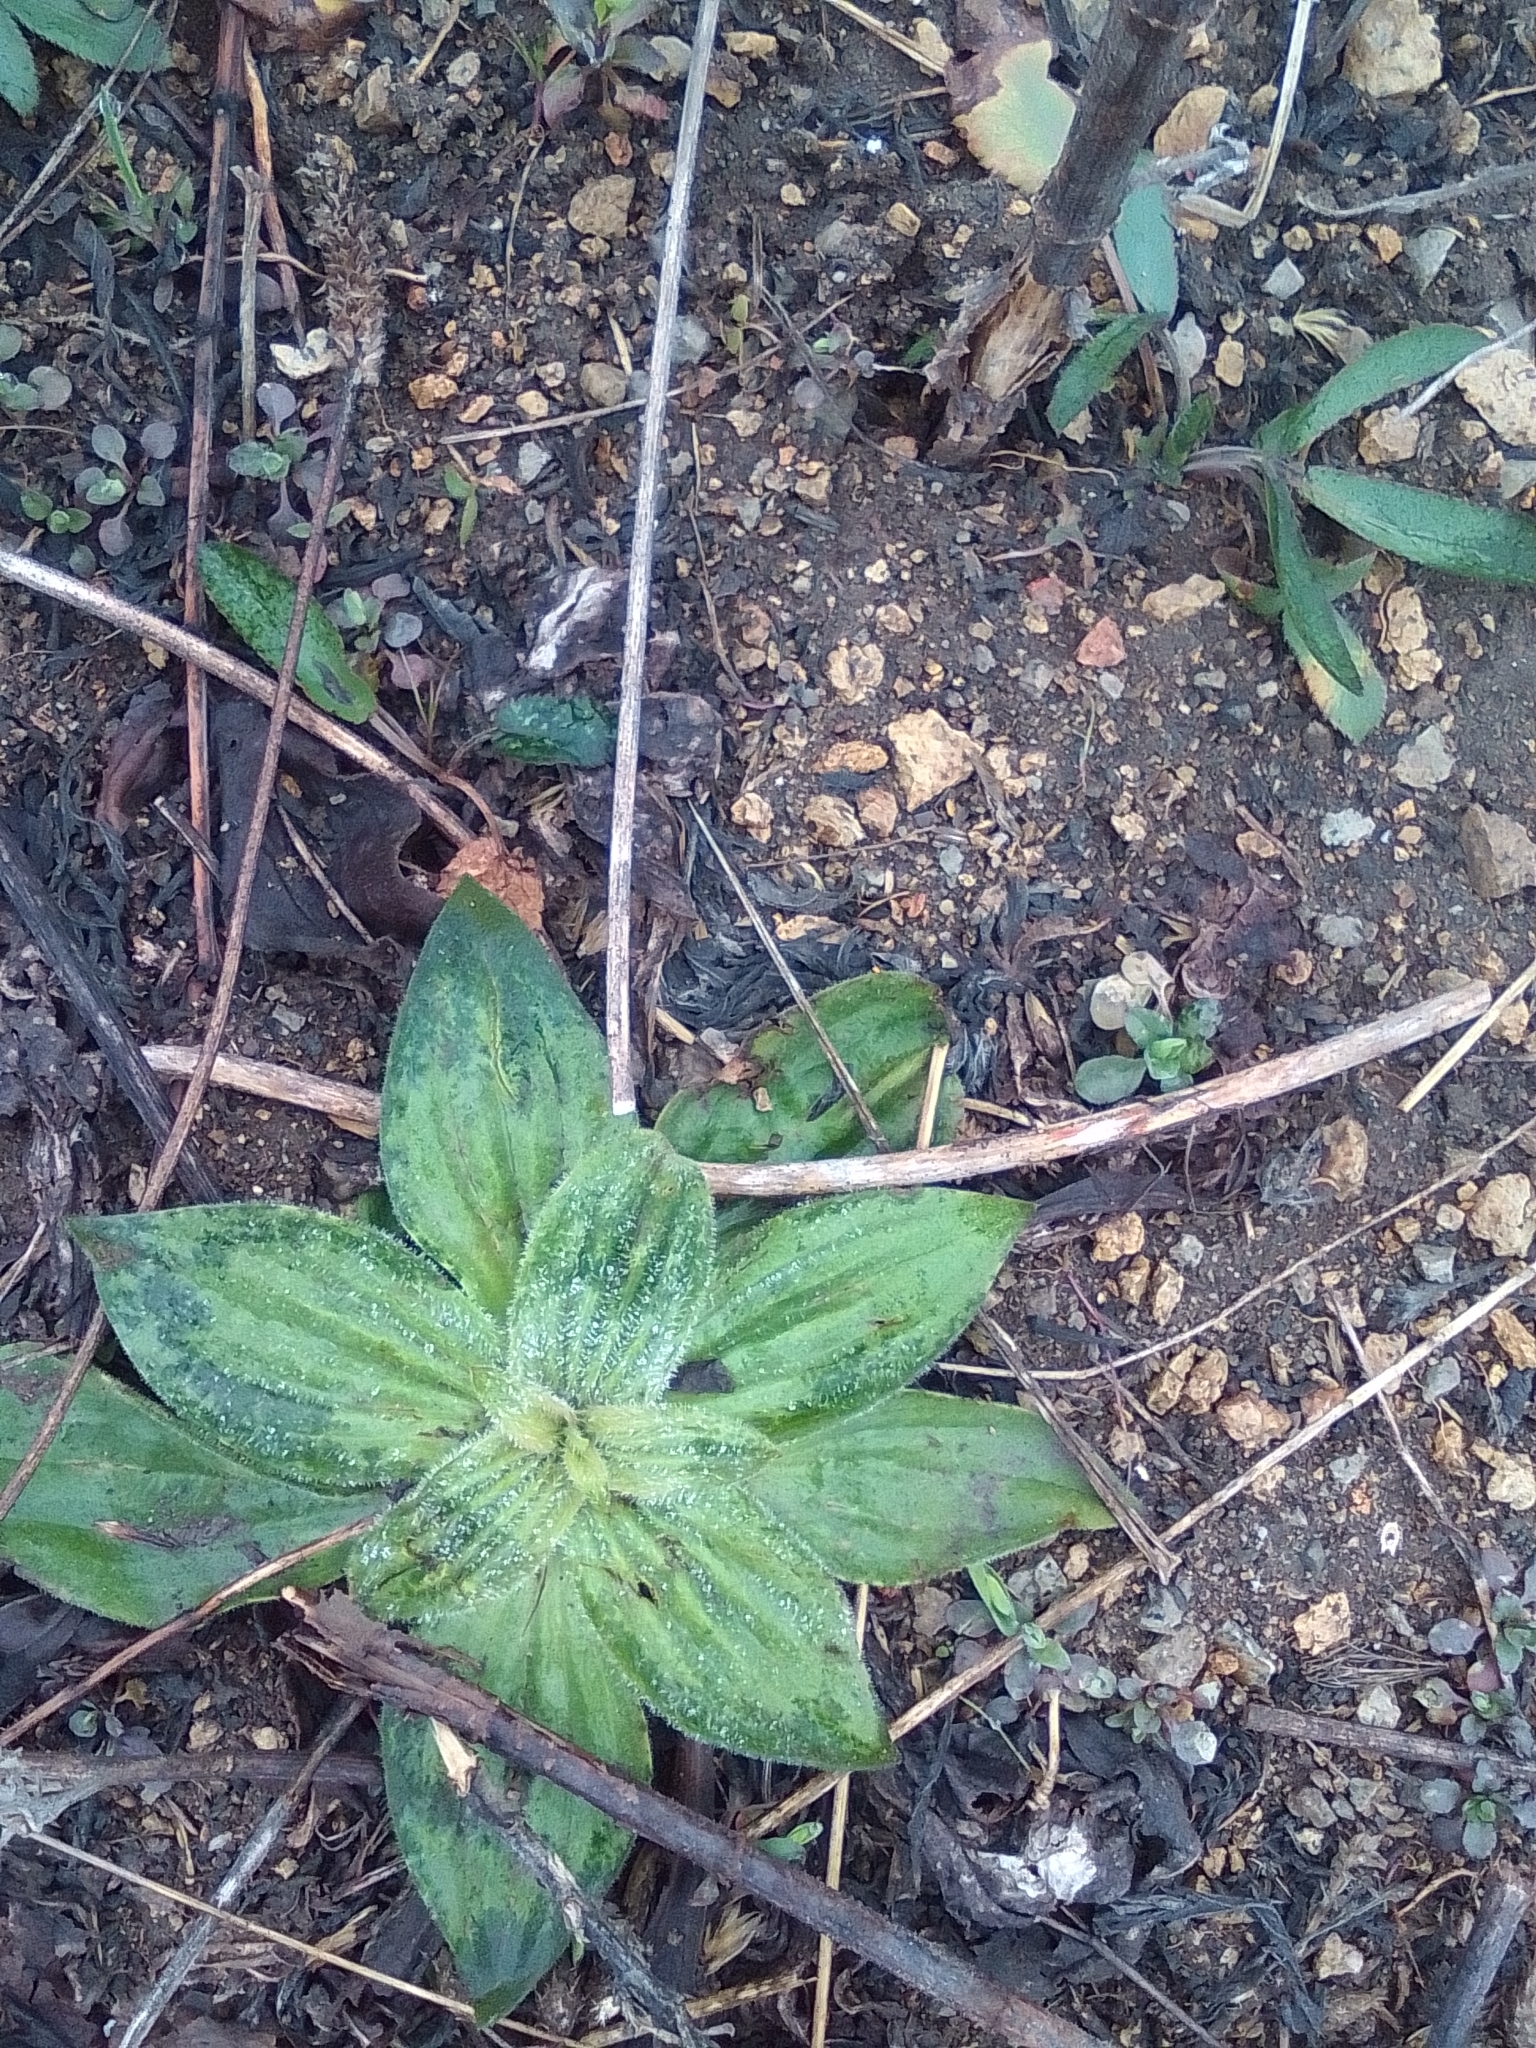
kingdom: Plantae
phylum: Tracheophyta
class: Magnoliopsida
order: Lamiales
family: Plantaginaceae
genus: Plantago
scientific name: Plantago media
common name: Hoary plantain
